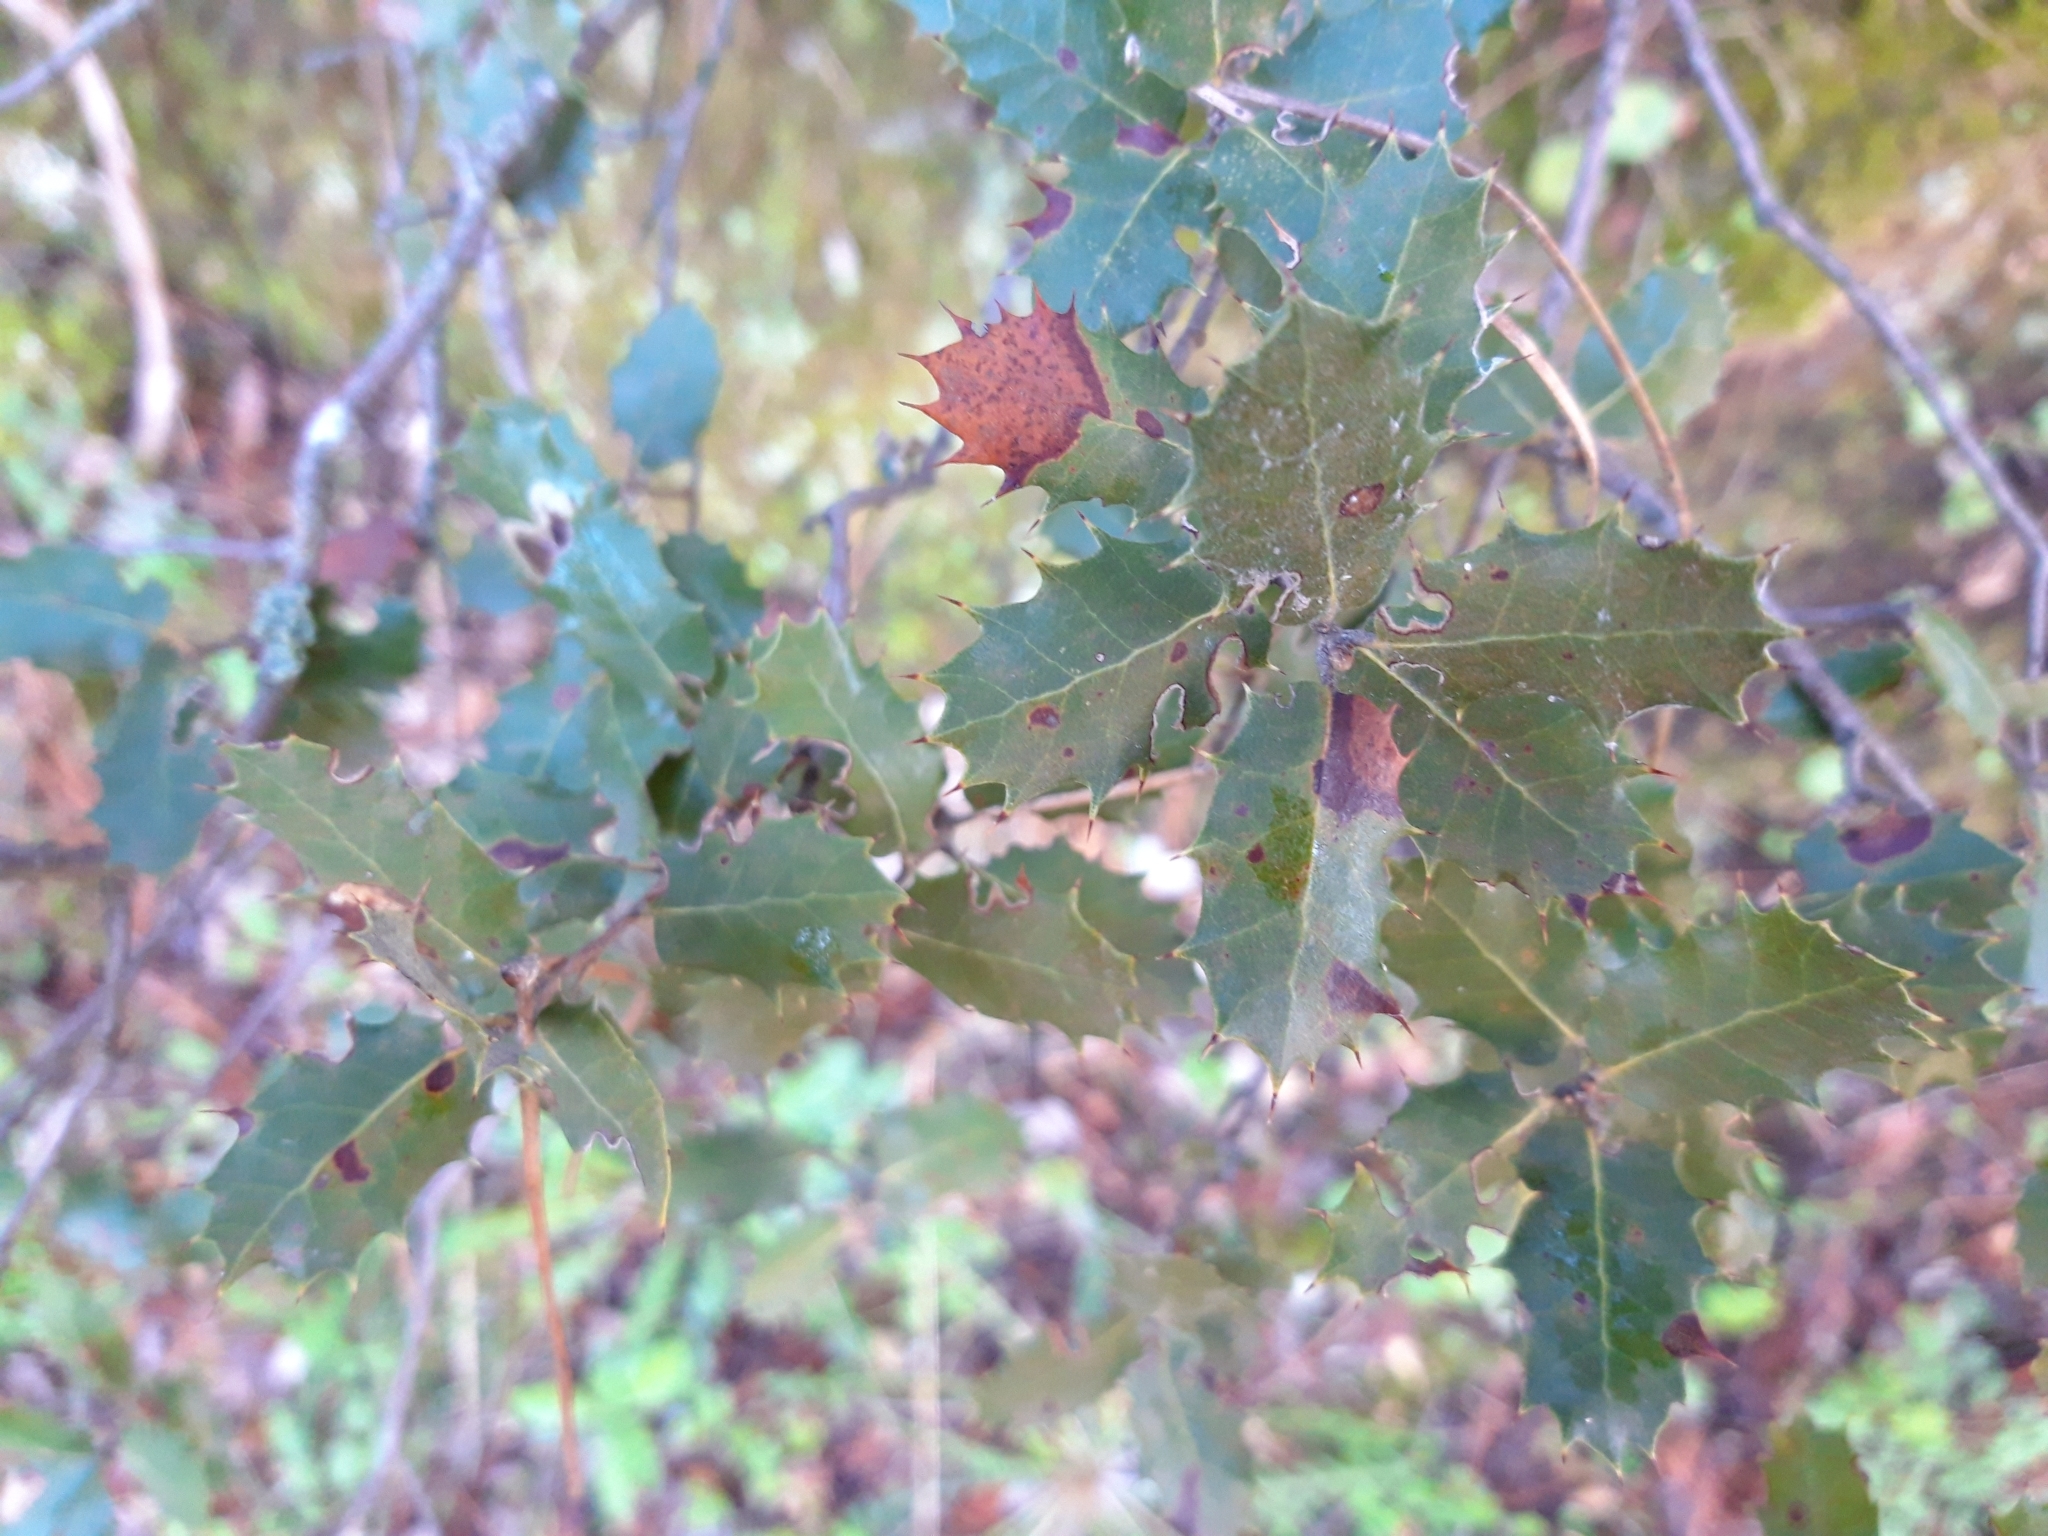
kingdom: Plantae
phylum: Tracheophyta
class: Magnoliopsida
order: Fagales
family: Fagaceae
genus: Quercus
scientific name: Quercus rotundifolia
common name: Holm oak
